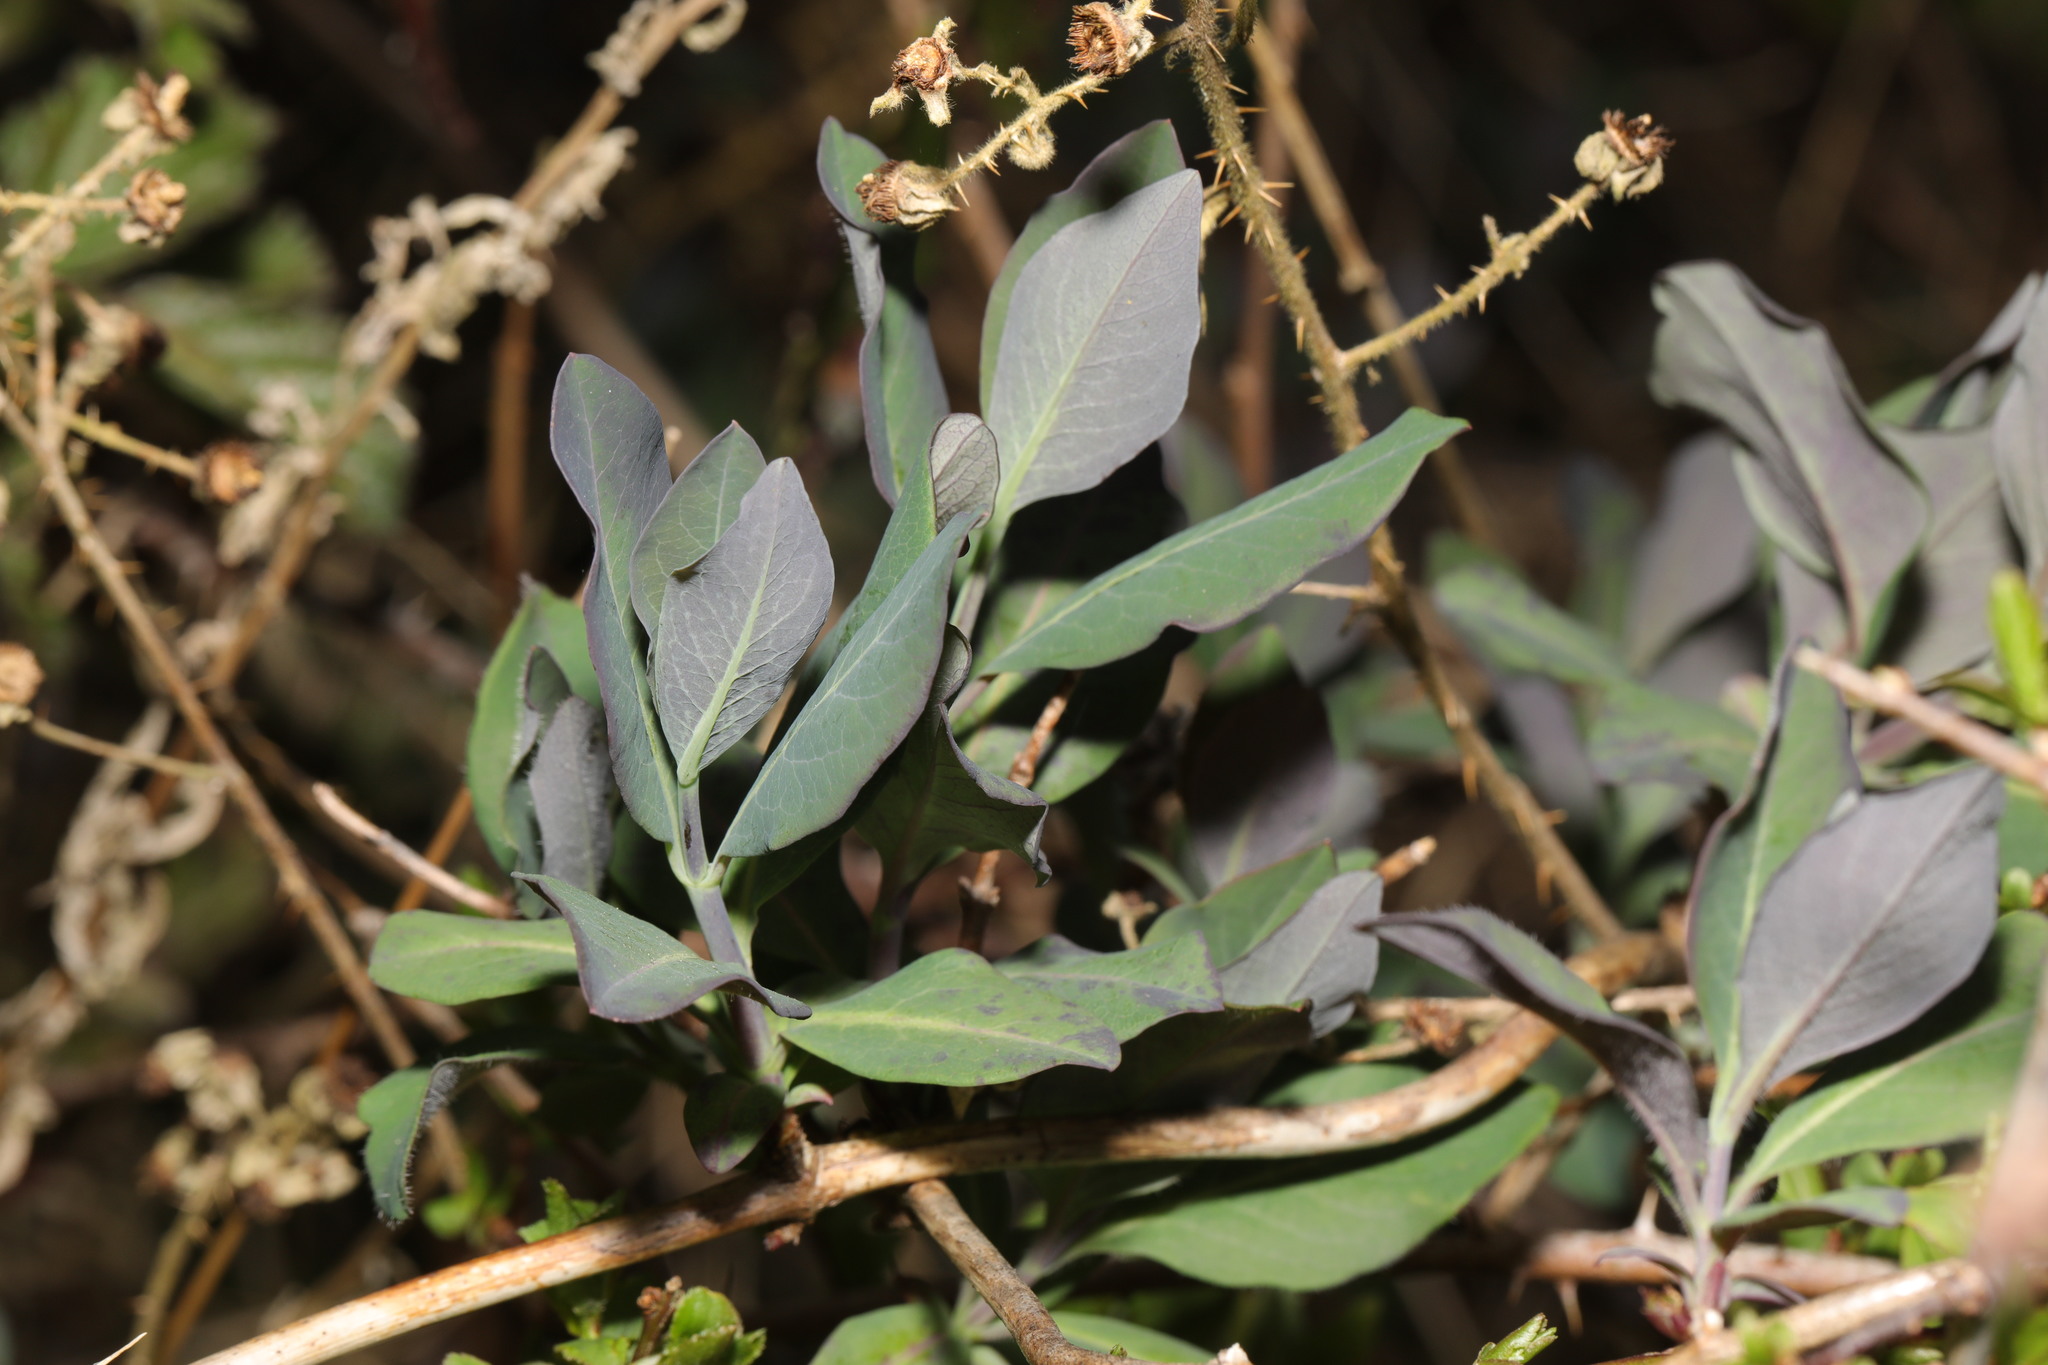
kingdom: Plantae
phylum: Tracheophyta
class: Magnoliopsida
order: Dipsacales
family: Caprifoliaceae
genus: Lonicera
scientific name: Lonicera periclymenum
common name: European honeysuckle
